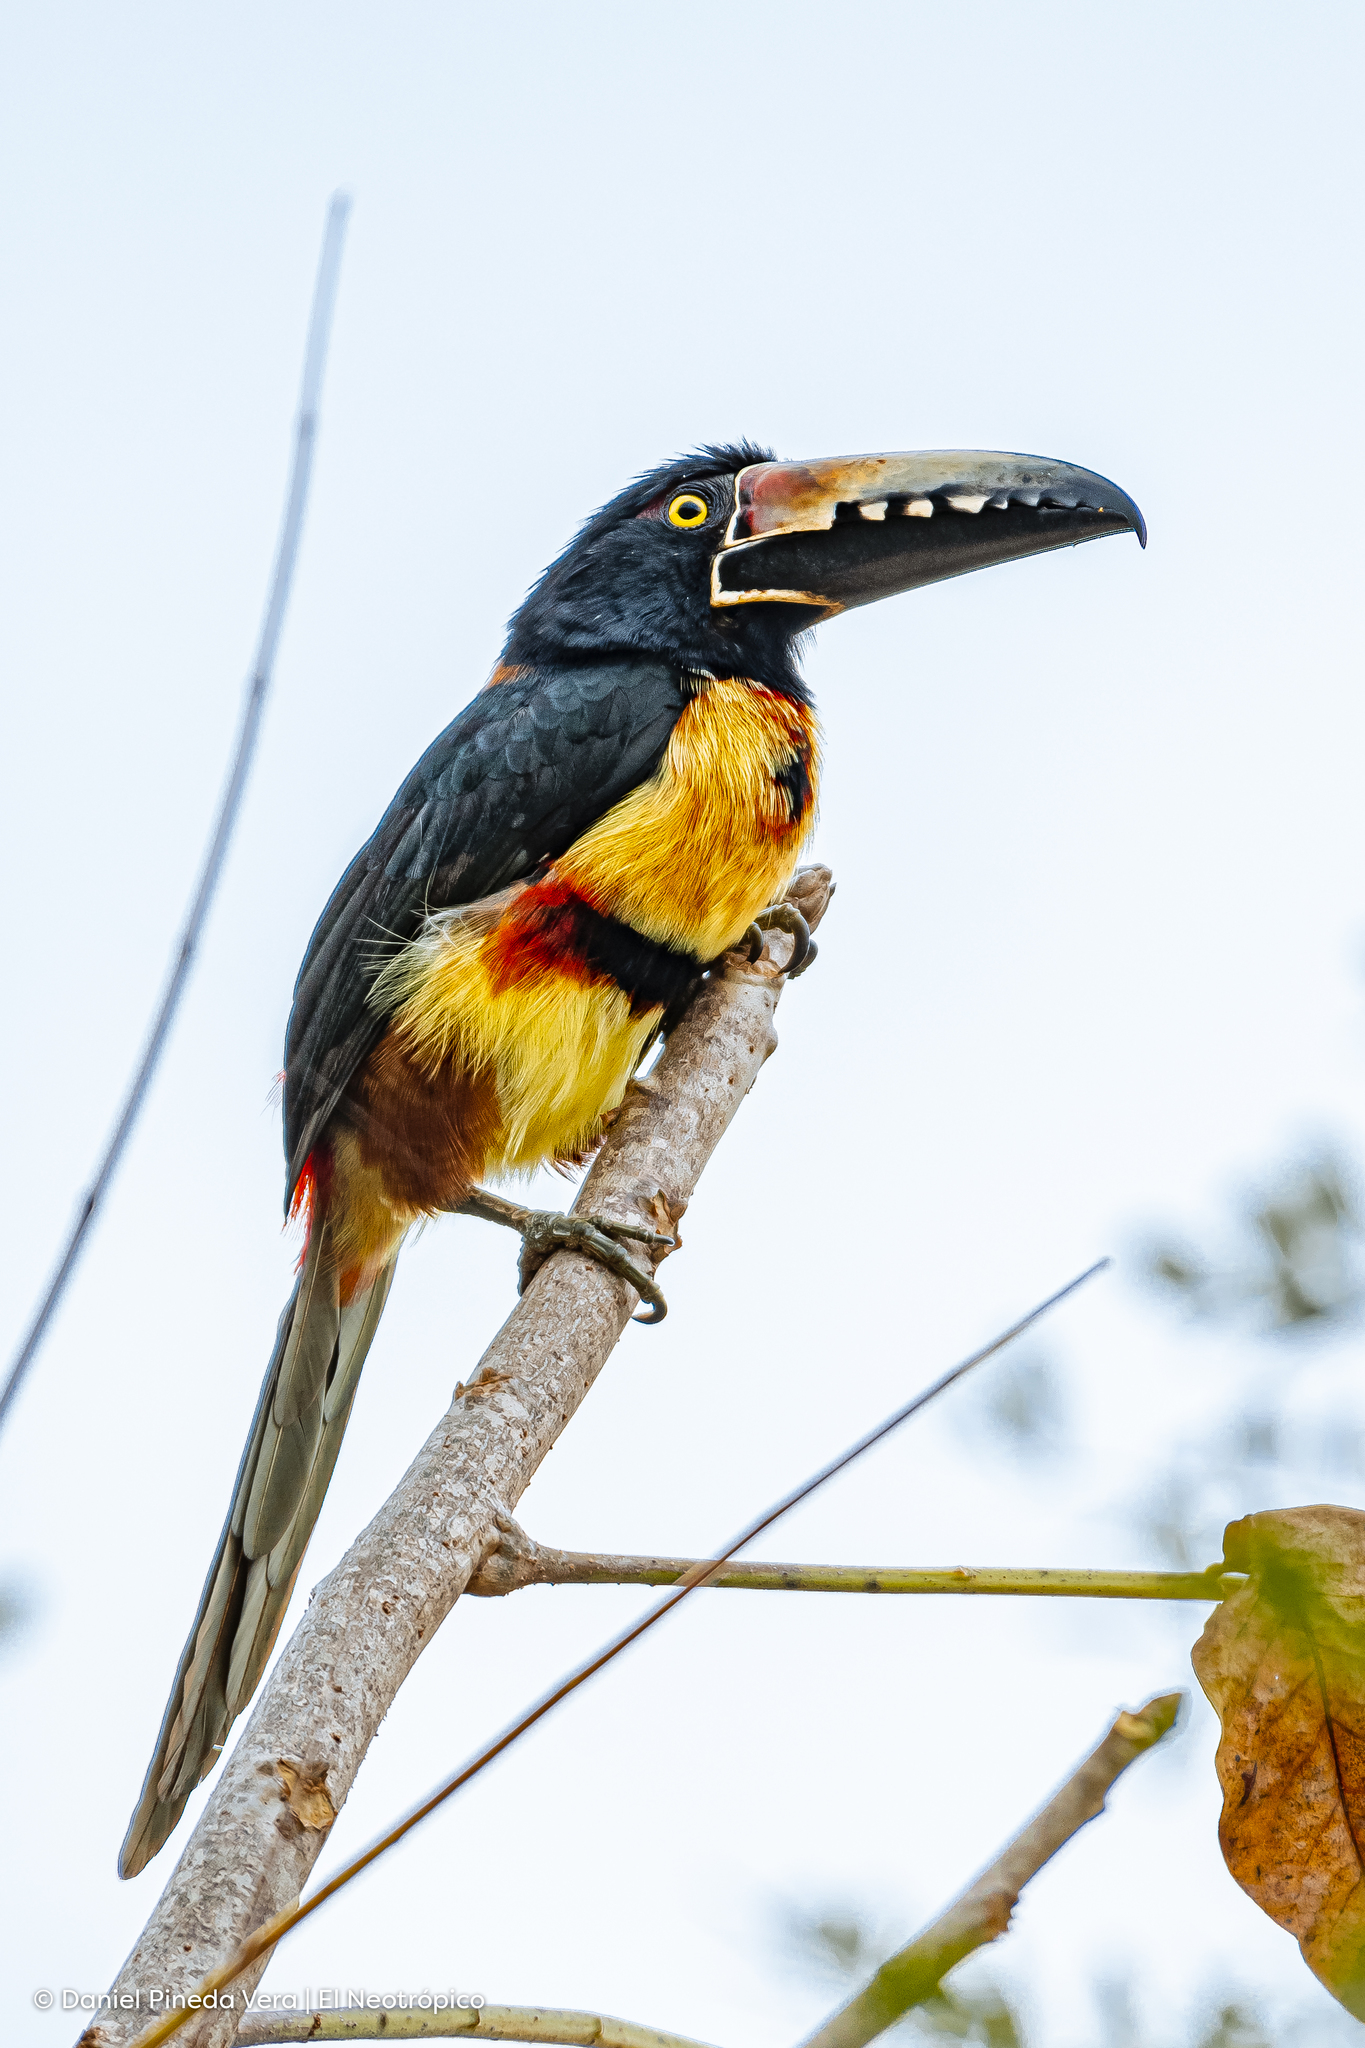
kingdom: Animalia
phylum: Chordata
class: Aves
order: Piciformes
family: Ramphastidae
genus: Pteroglossus
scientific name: Pteroglossus torquatus
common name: Collared aracari
